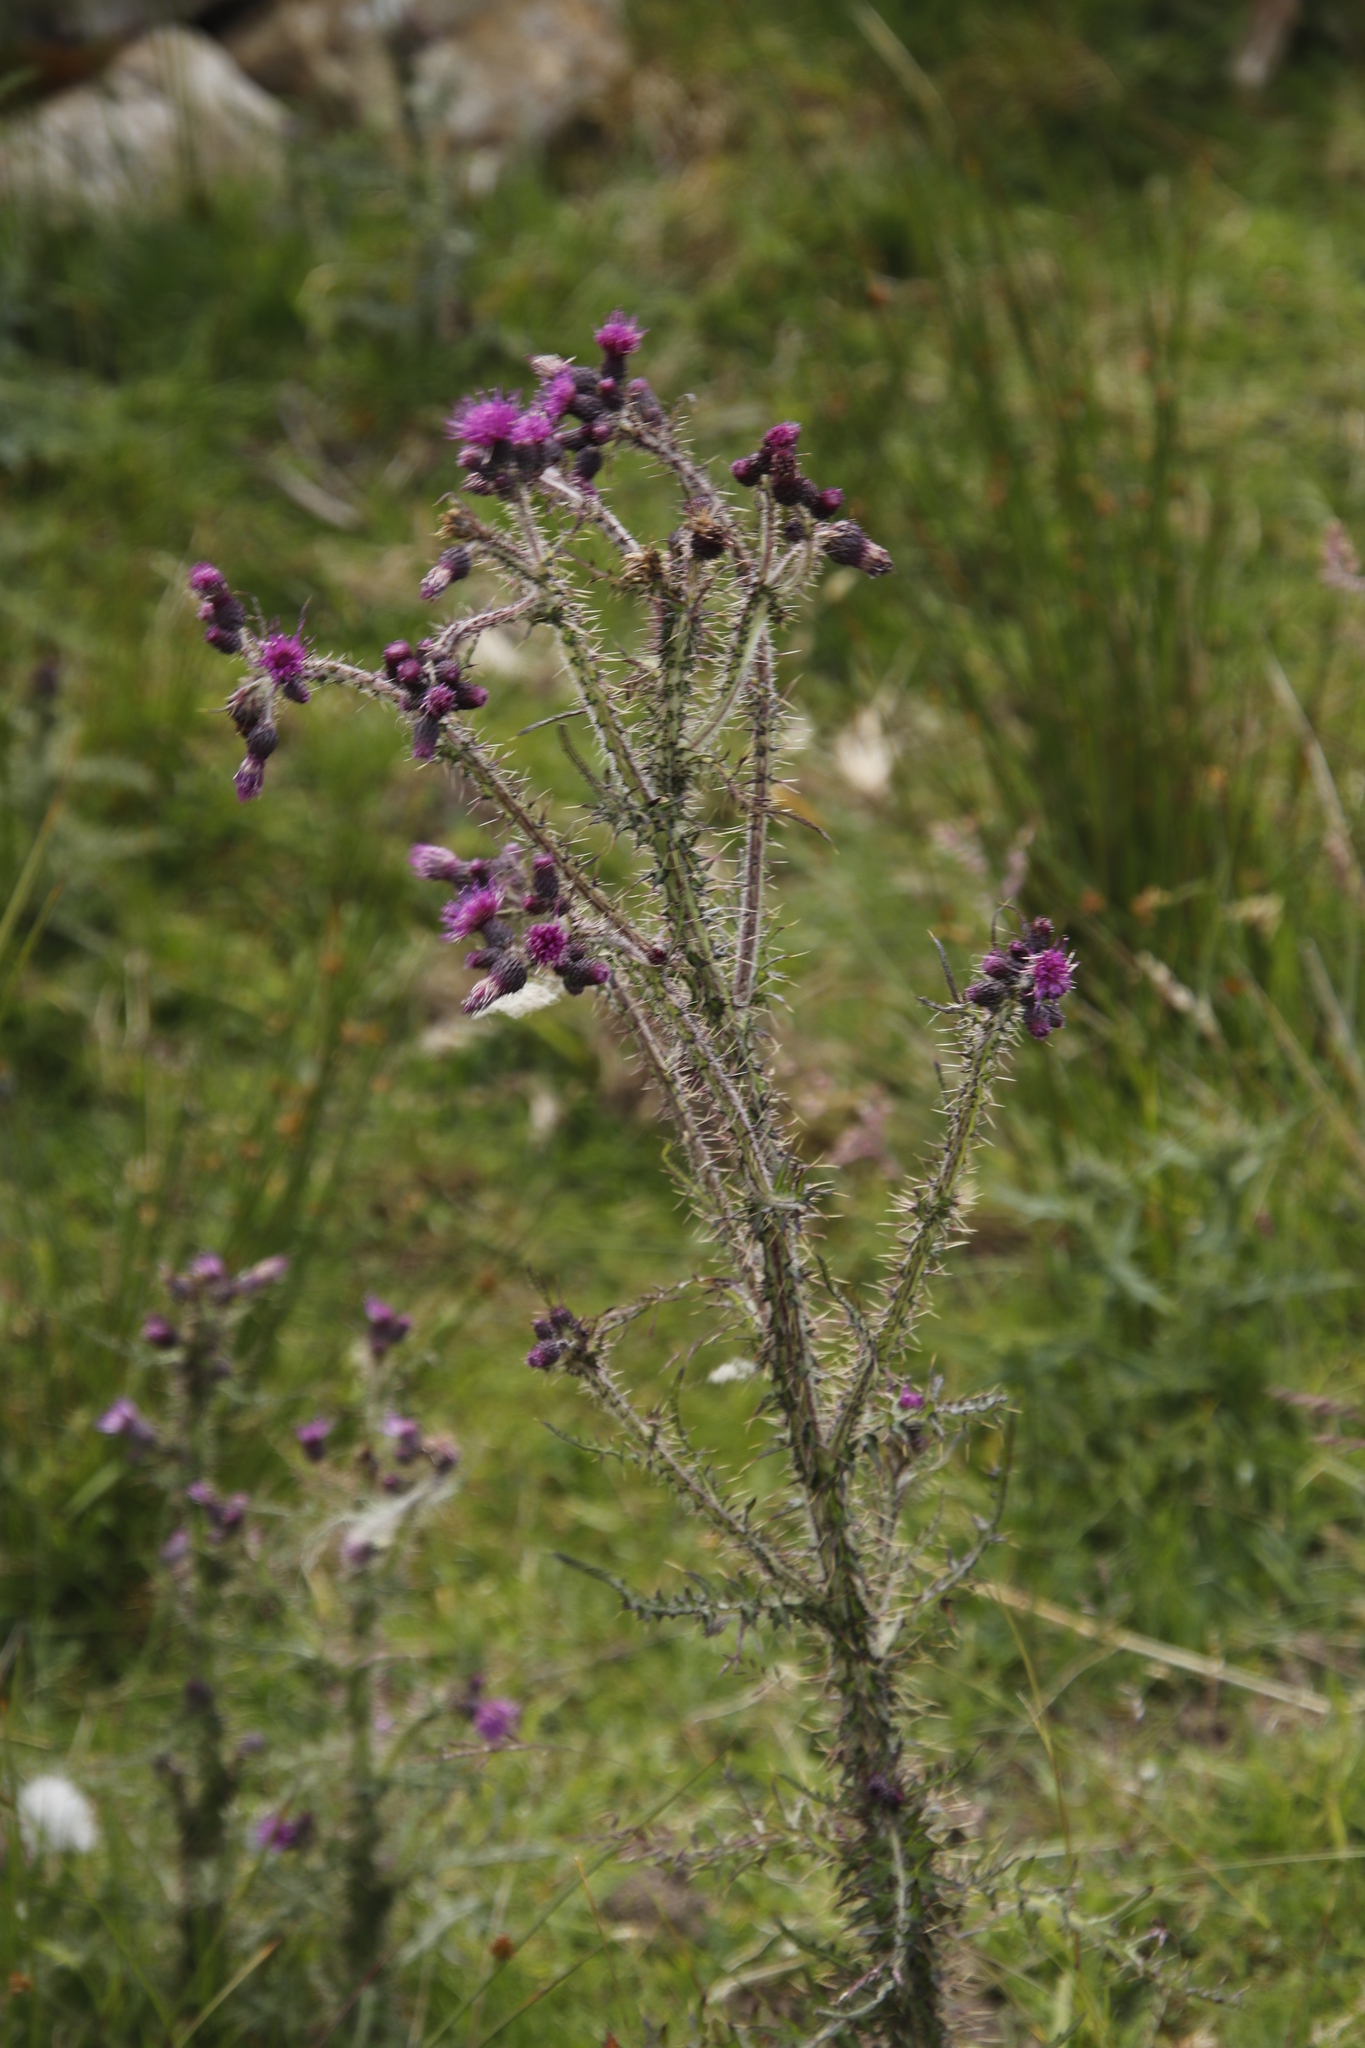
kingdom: Plantae
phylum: Tracheophyta
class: Magnoliopsida
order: Asterales
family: Asteraceae
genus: Cirsium
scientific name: Cirsium palustre
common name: Marsh thistle
